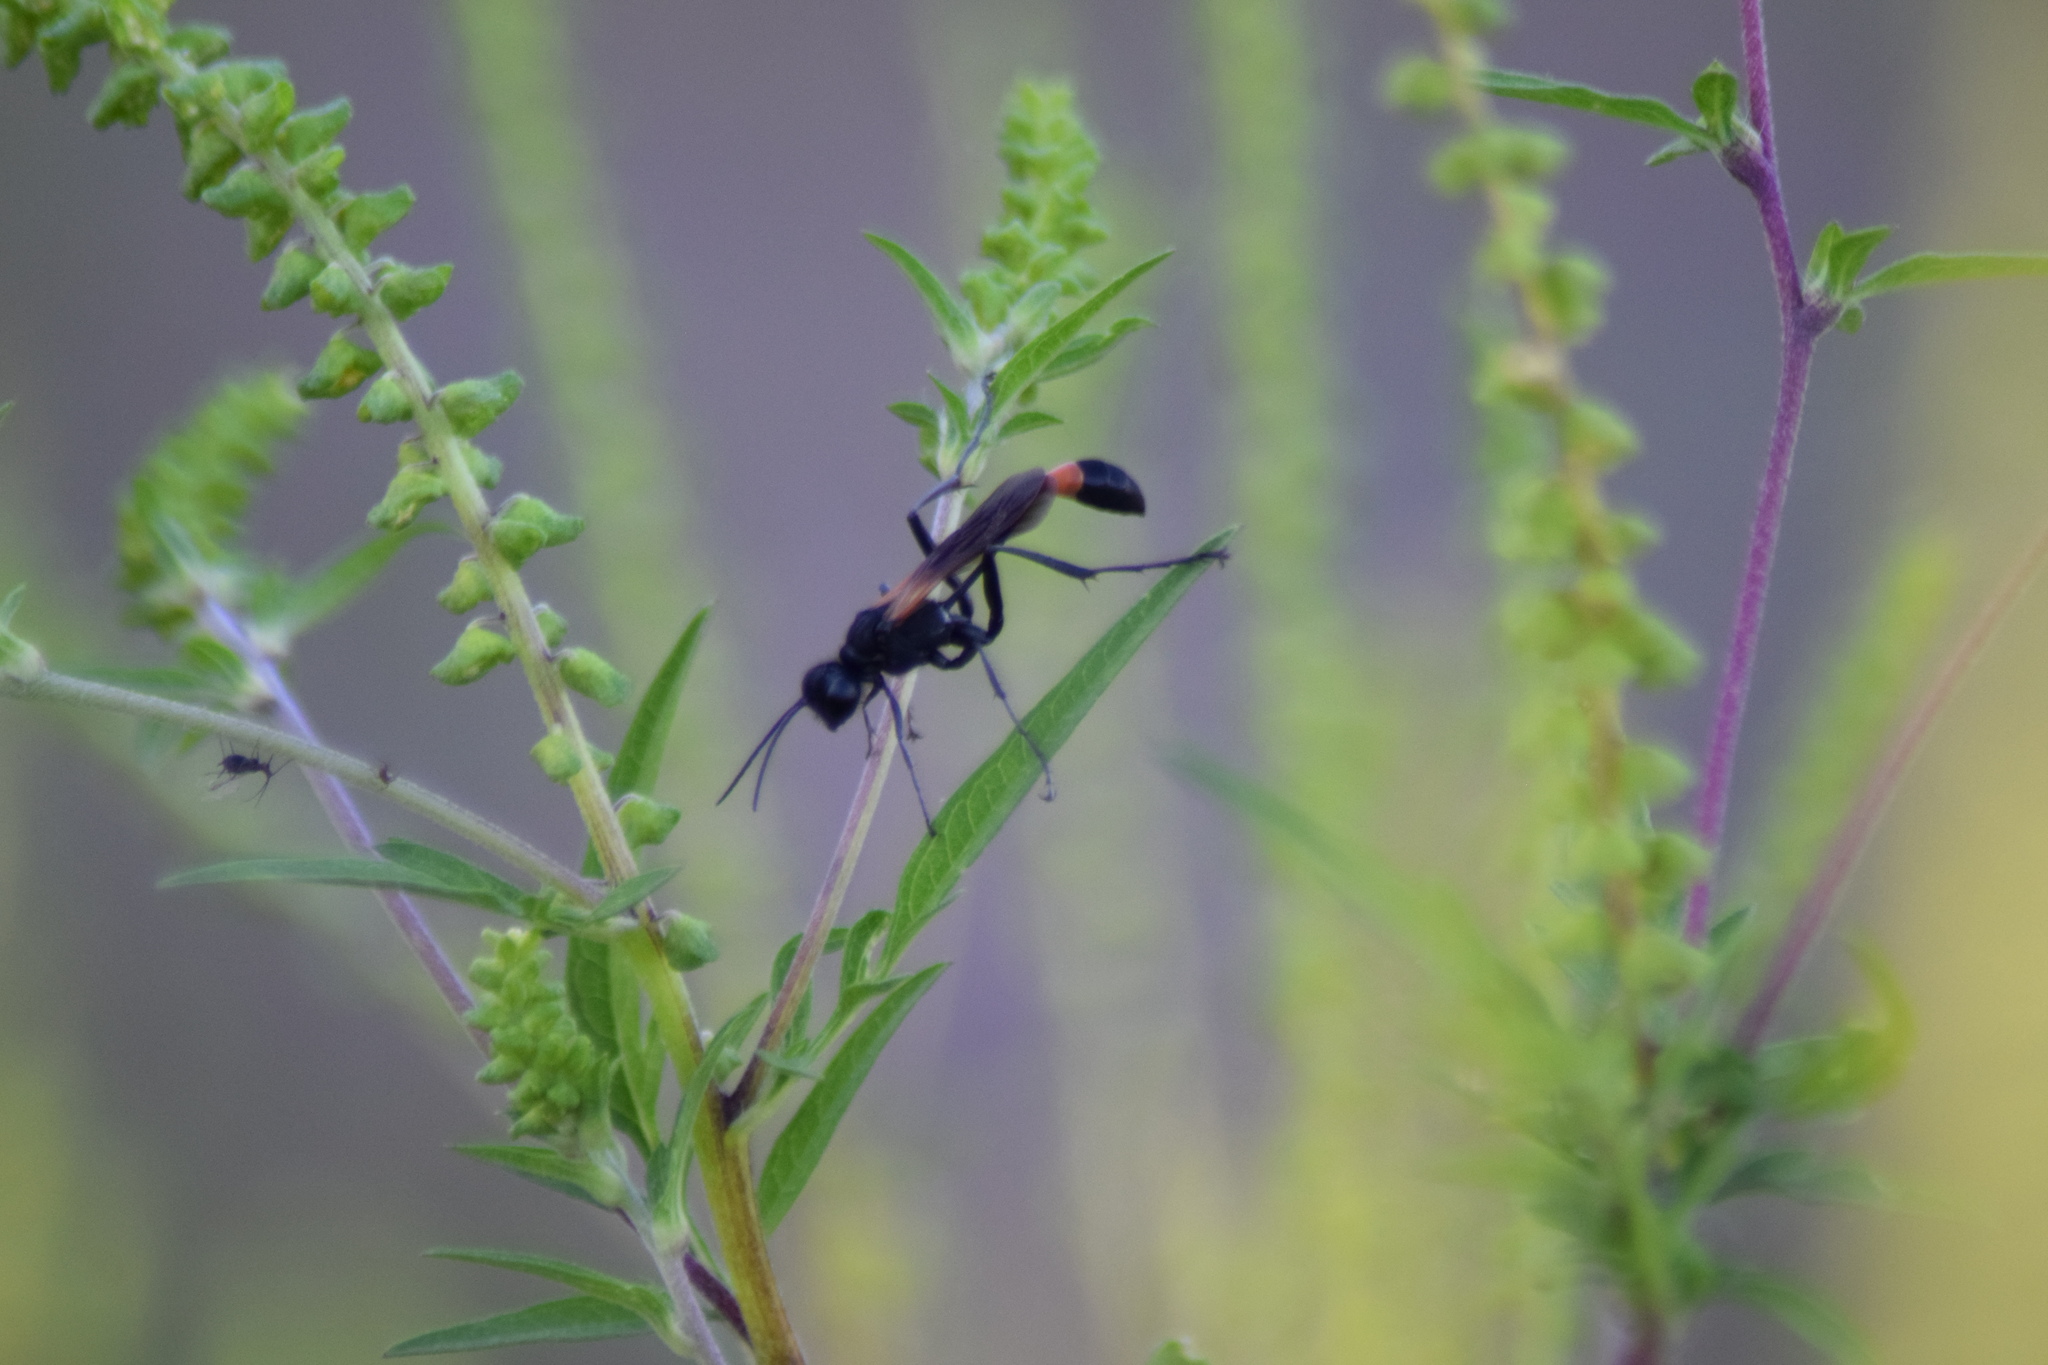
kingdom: Animalia
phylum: Arthropoda
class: Insecta
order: Hymenoptera
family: Sphecidae
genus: Ammophila
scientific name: Ammophila pictipennis
